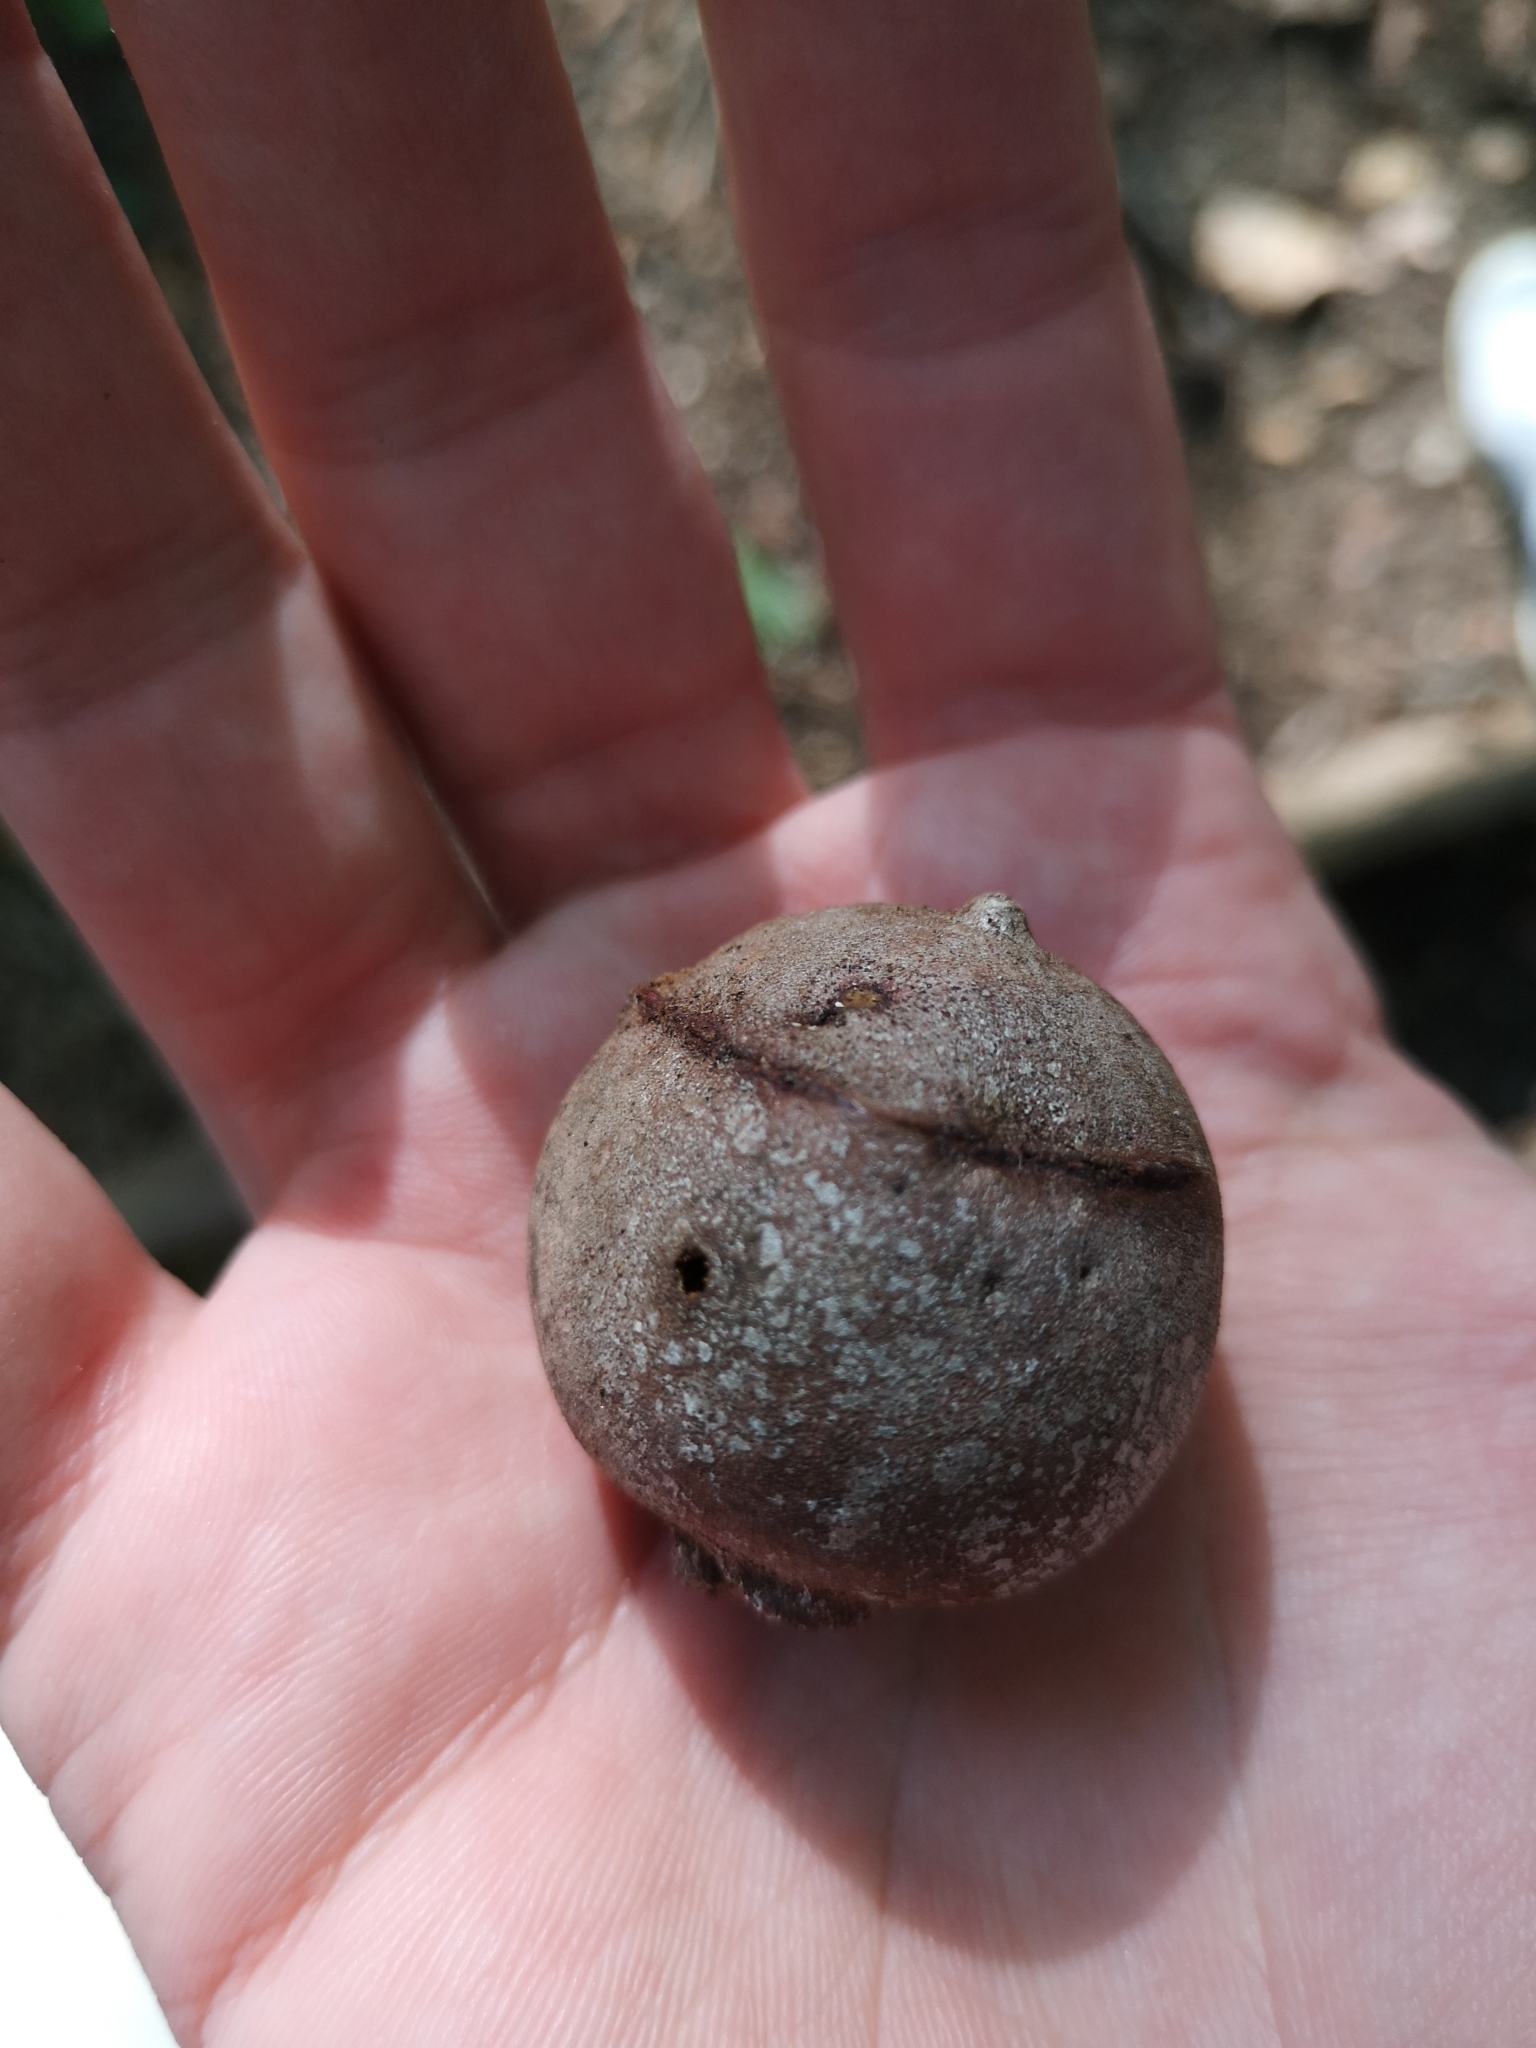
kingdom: Animalia
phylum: Arthropoda
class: Insecta
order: Hymenoptera
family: Cynipidae
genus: Andricus
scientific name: Andricus quercustozae
